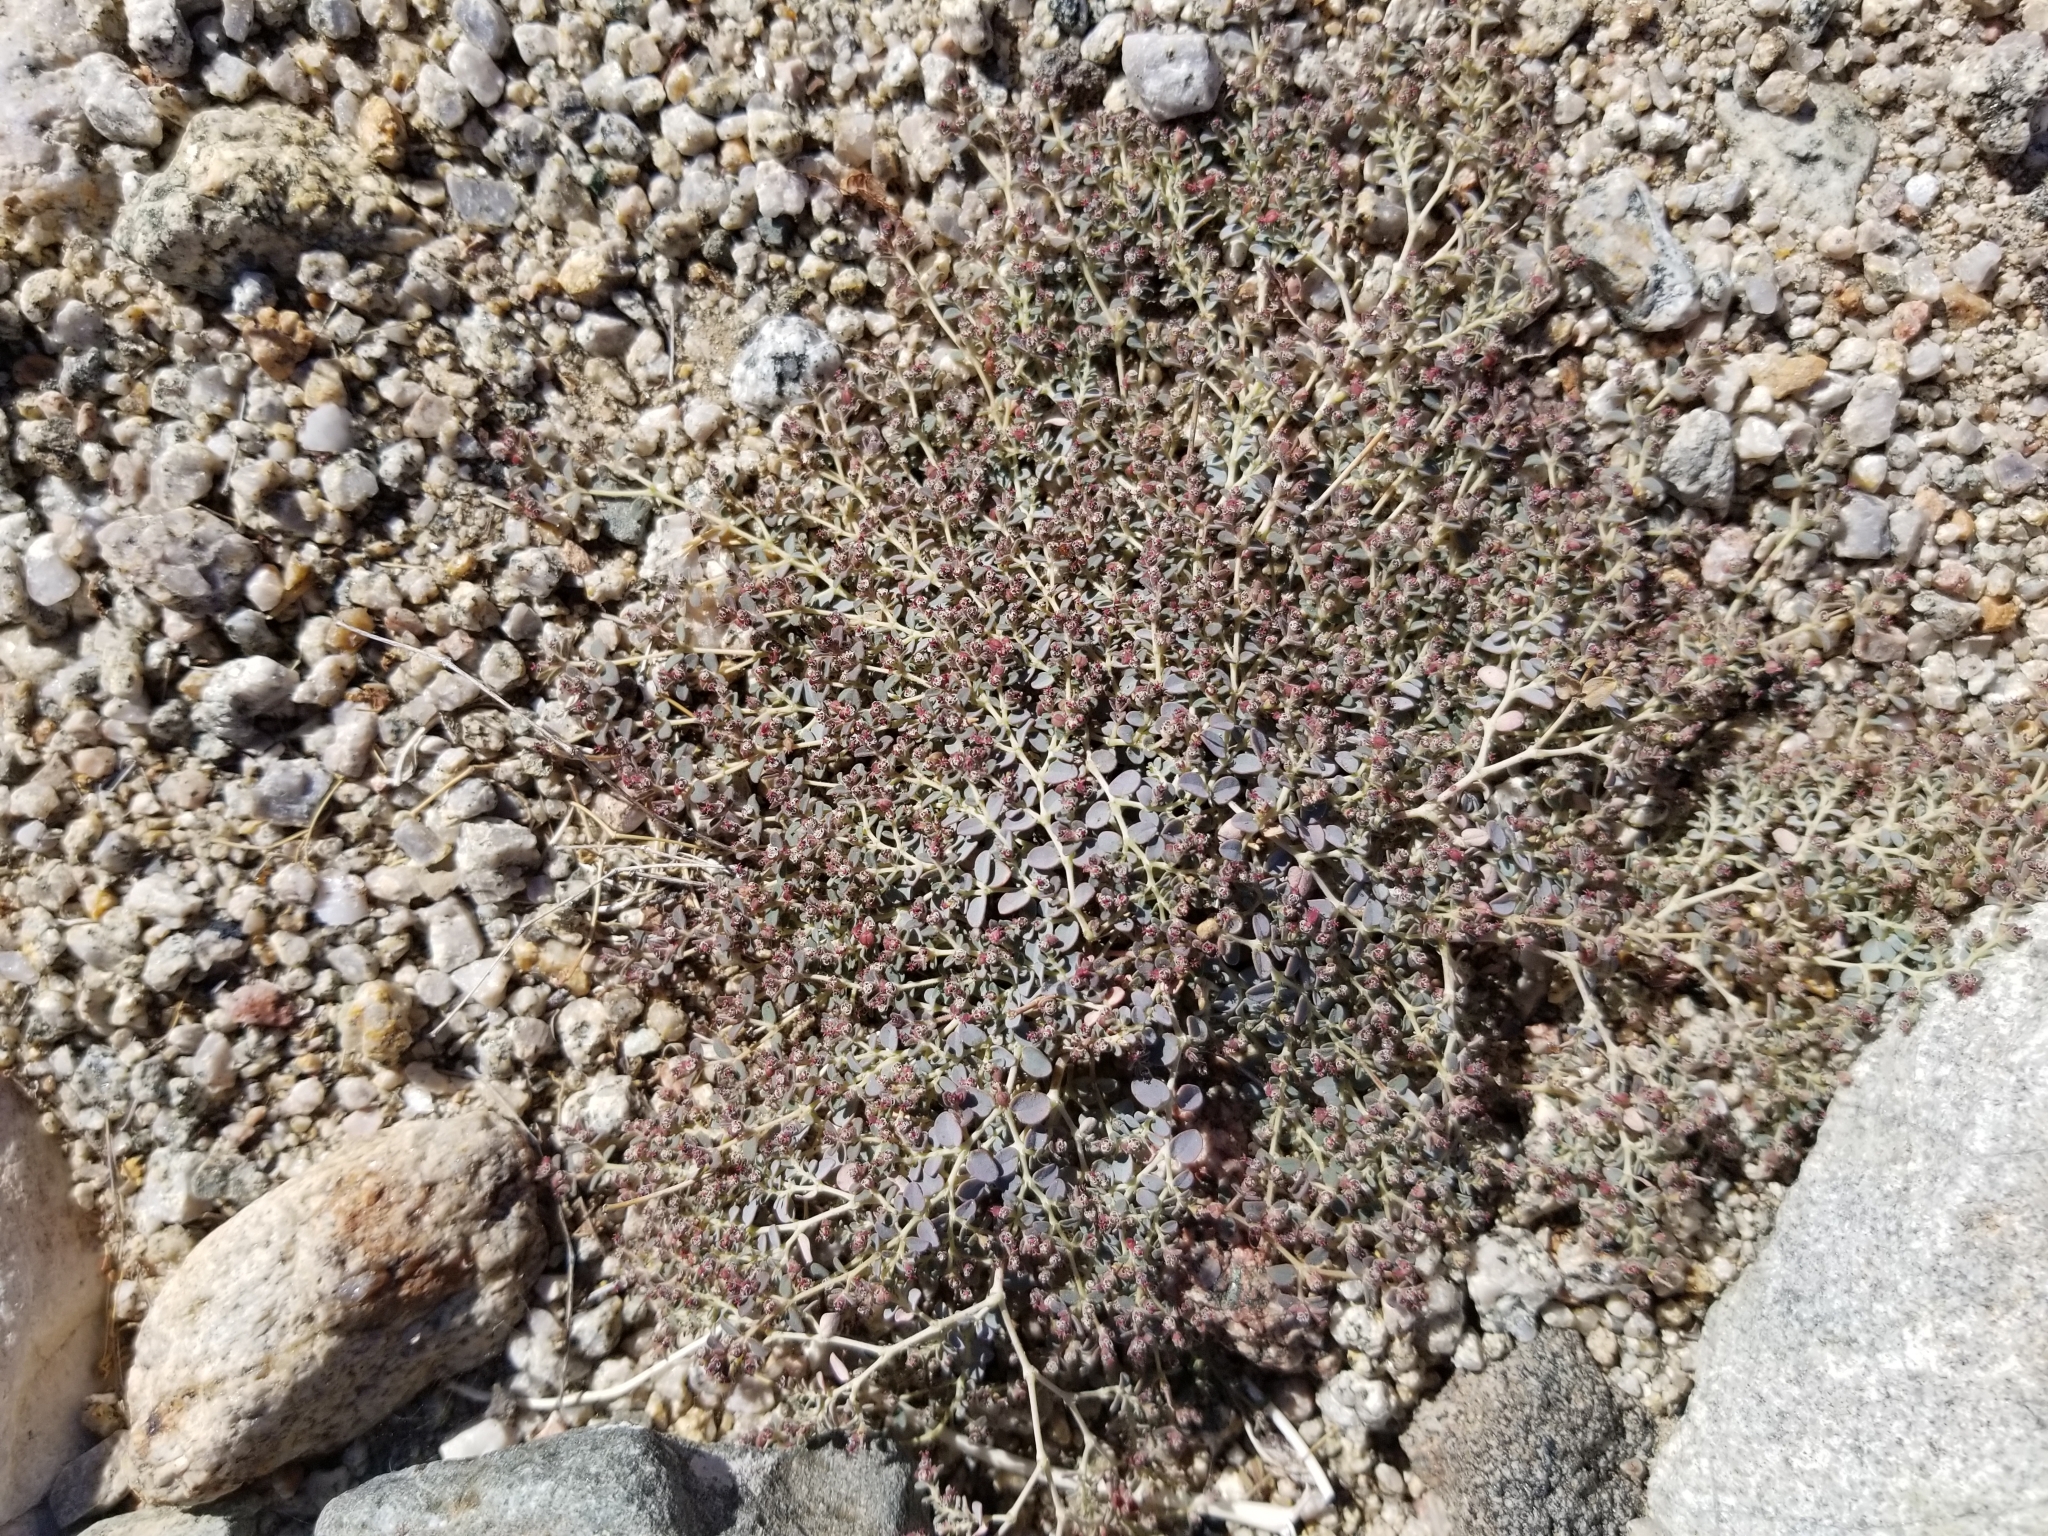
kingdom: Plantae
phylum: Tracheophyta
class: Magnoliopsida
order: Malpighiales
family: Euphorbiaceae
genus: Euphorbia
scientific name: Euphorbia micromera
